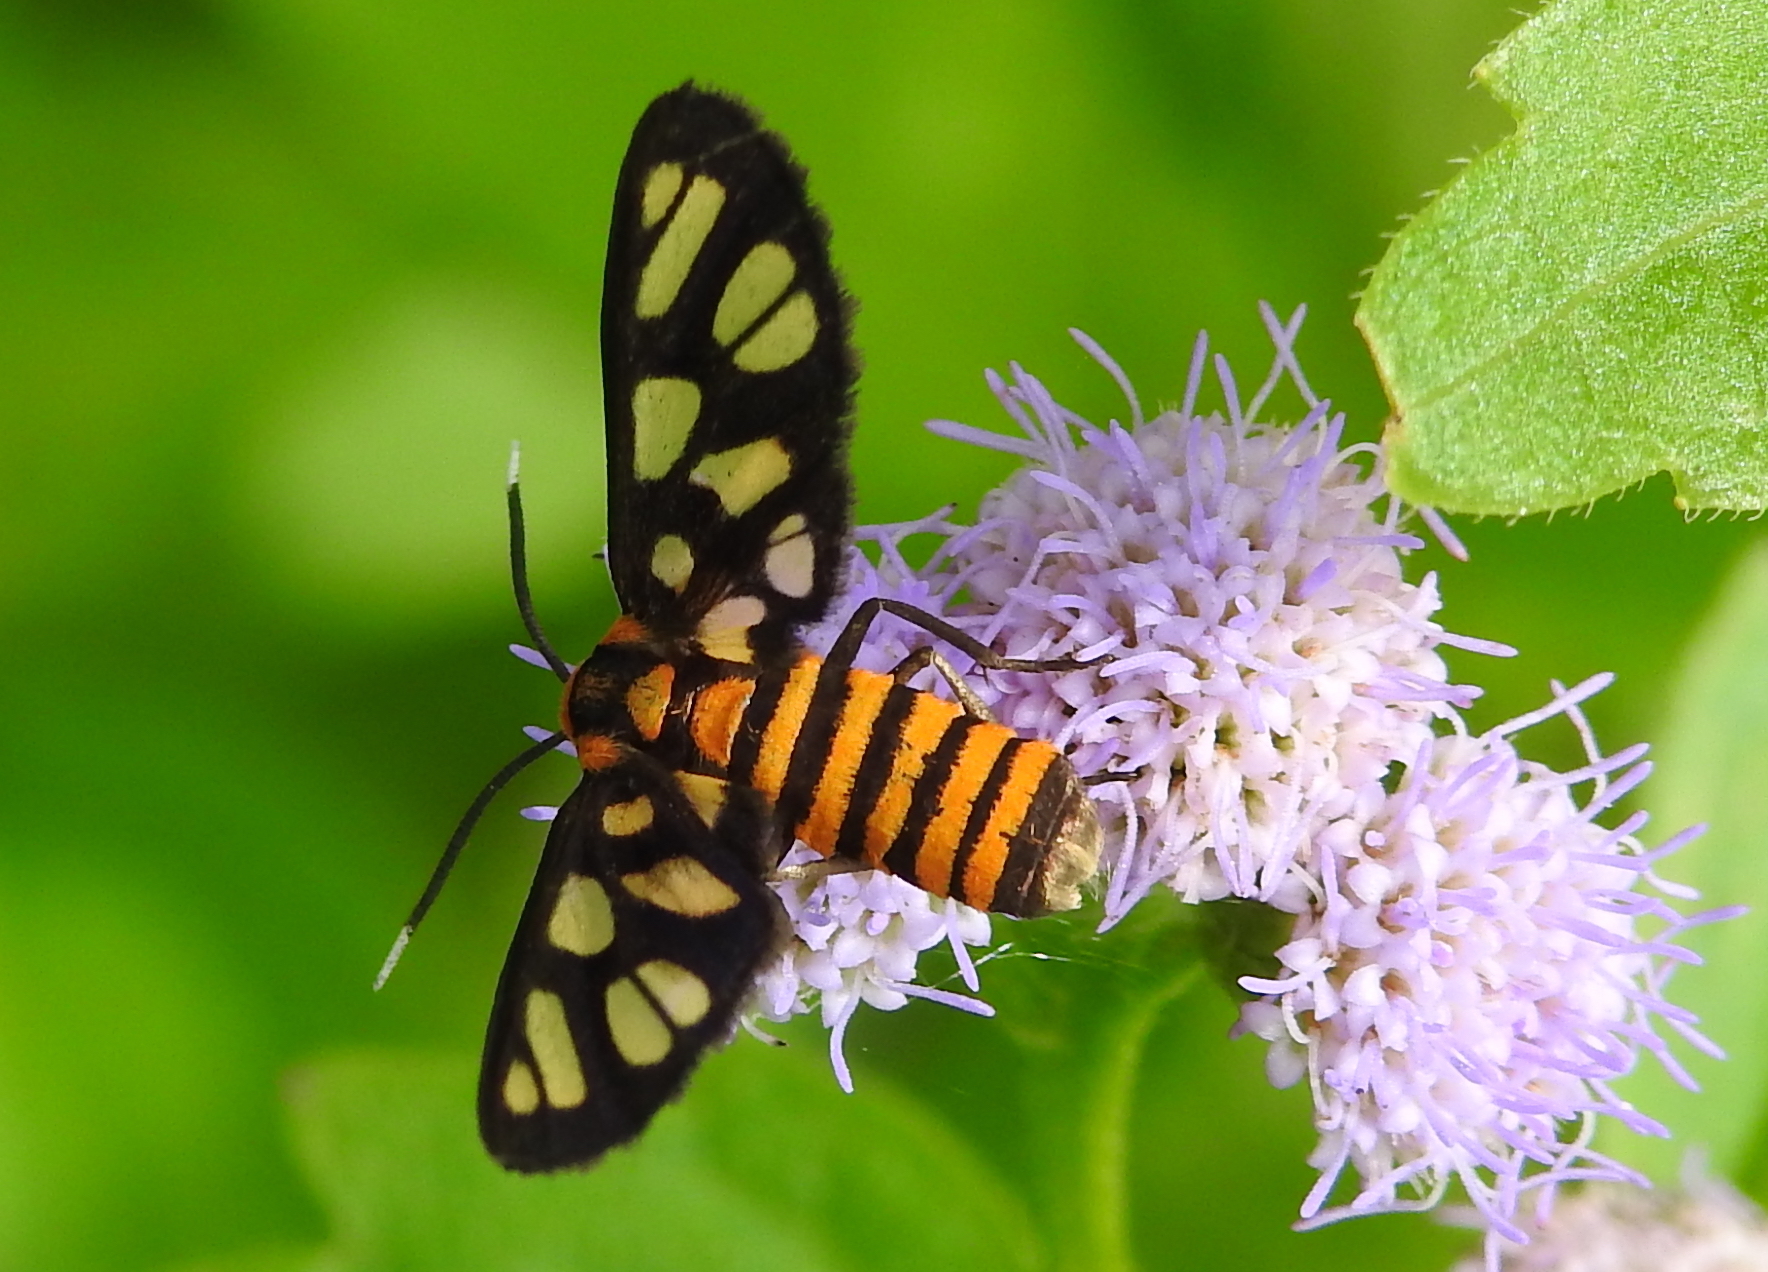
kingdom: Animalia
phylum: Arthropoda
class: Insecta
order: Lepidoptera
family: Erebidae
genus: Amata
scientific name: Amata huebneri
